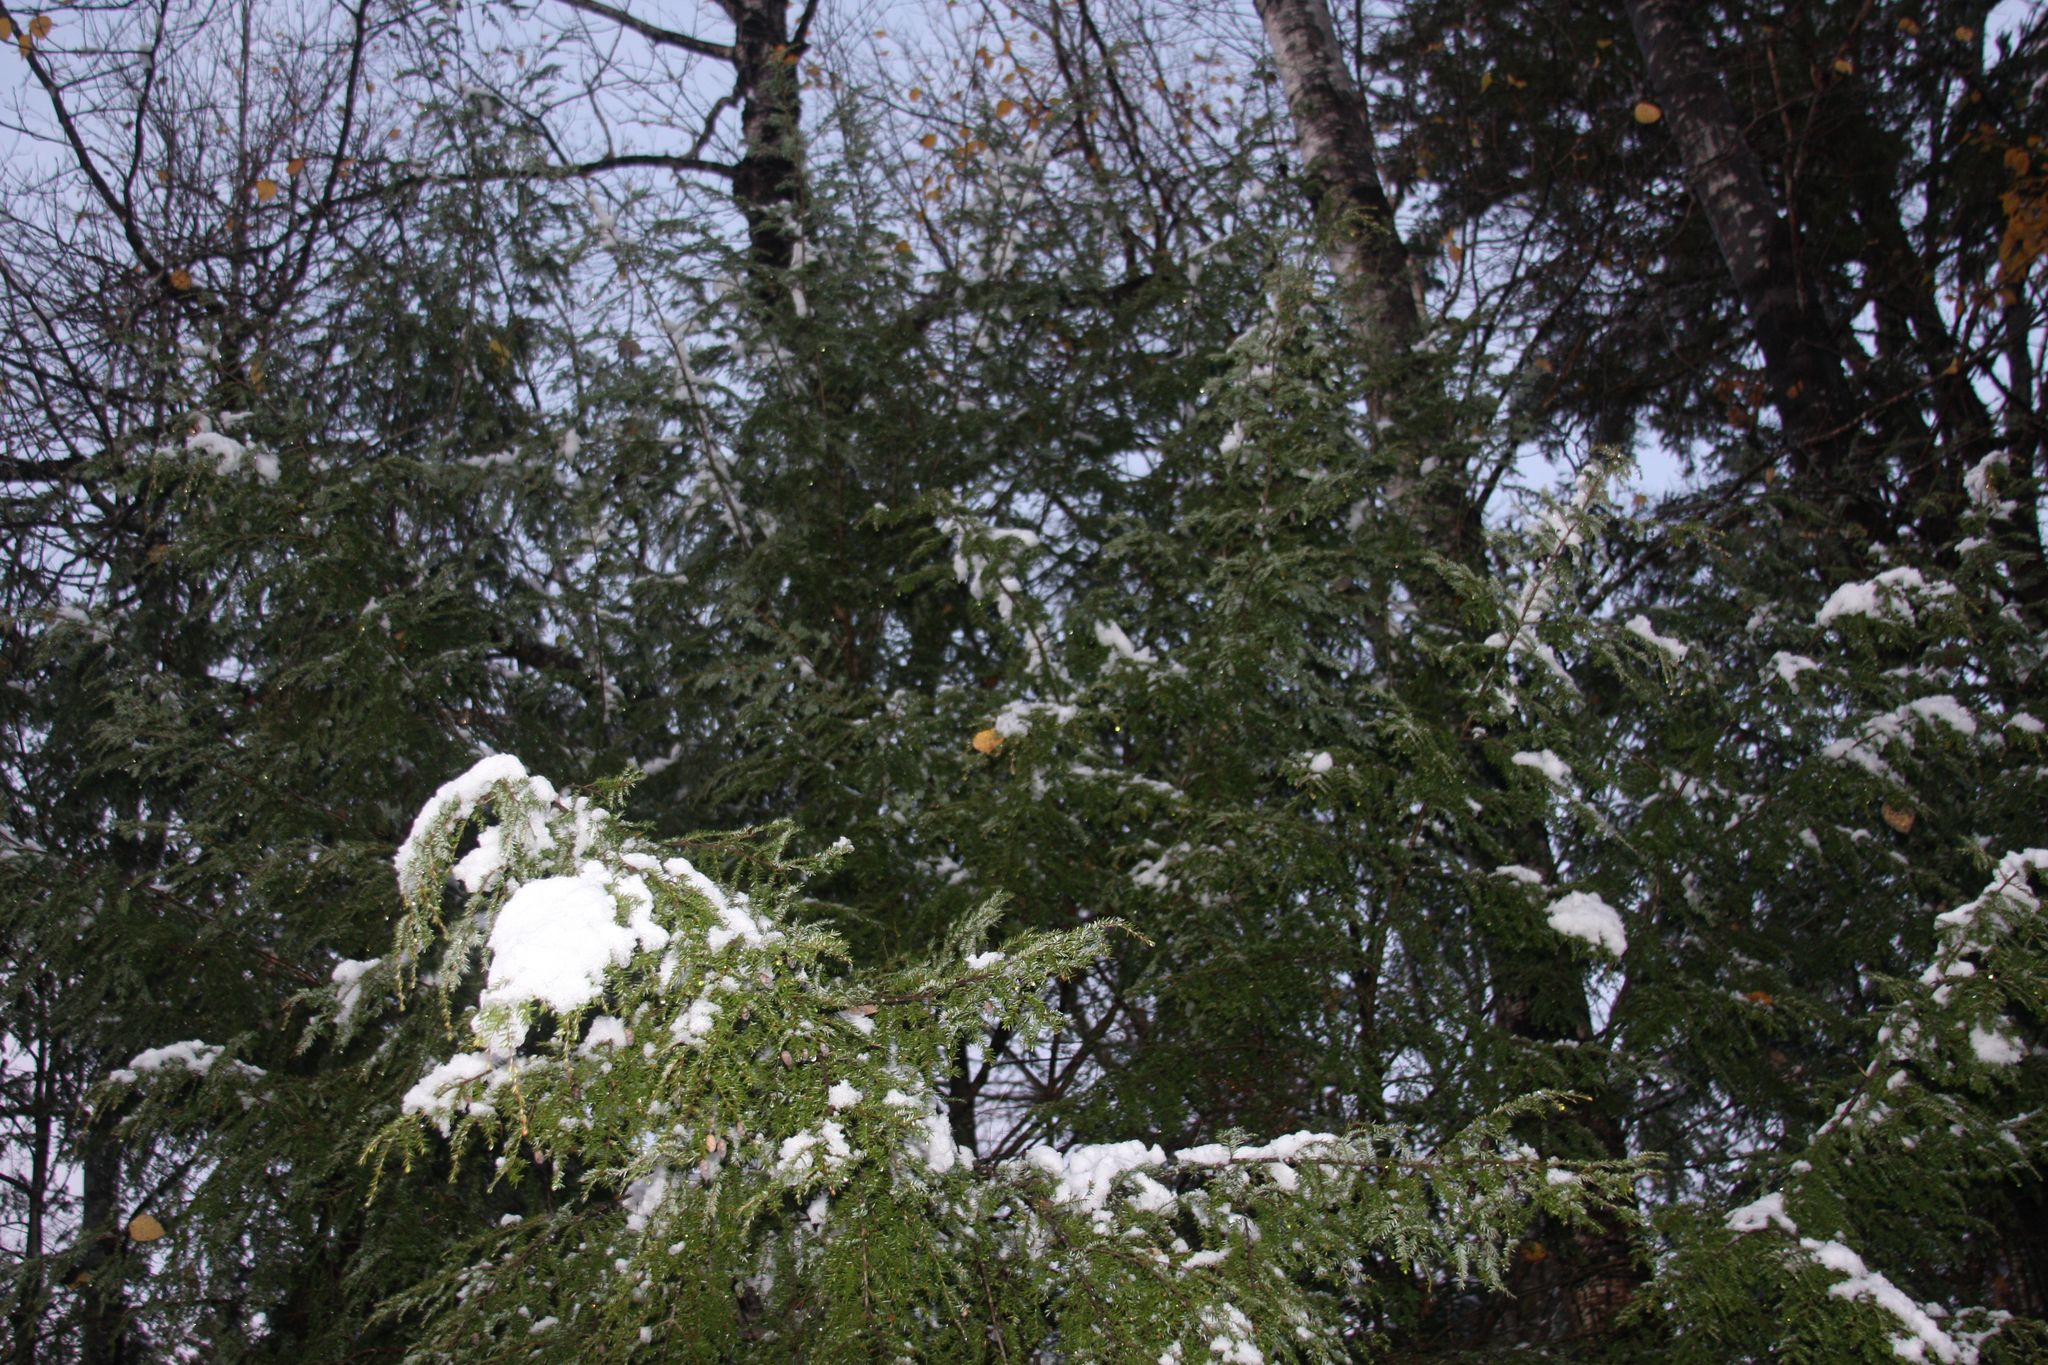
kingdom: Plantae
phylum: Tracheophyta
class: Pinopsida
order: Pinales
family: Pinaceae
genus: Tsuga
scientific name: Tsuga canadensis
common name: Eastern hemlock
